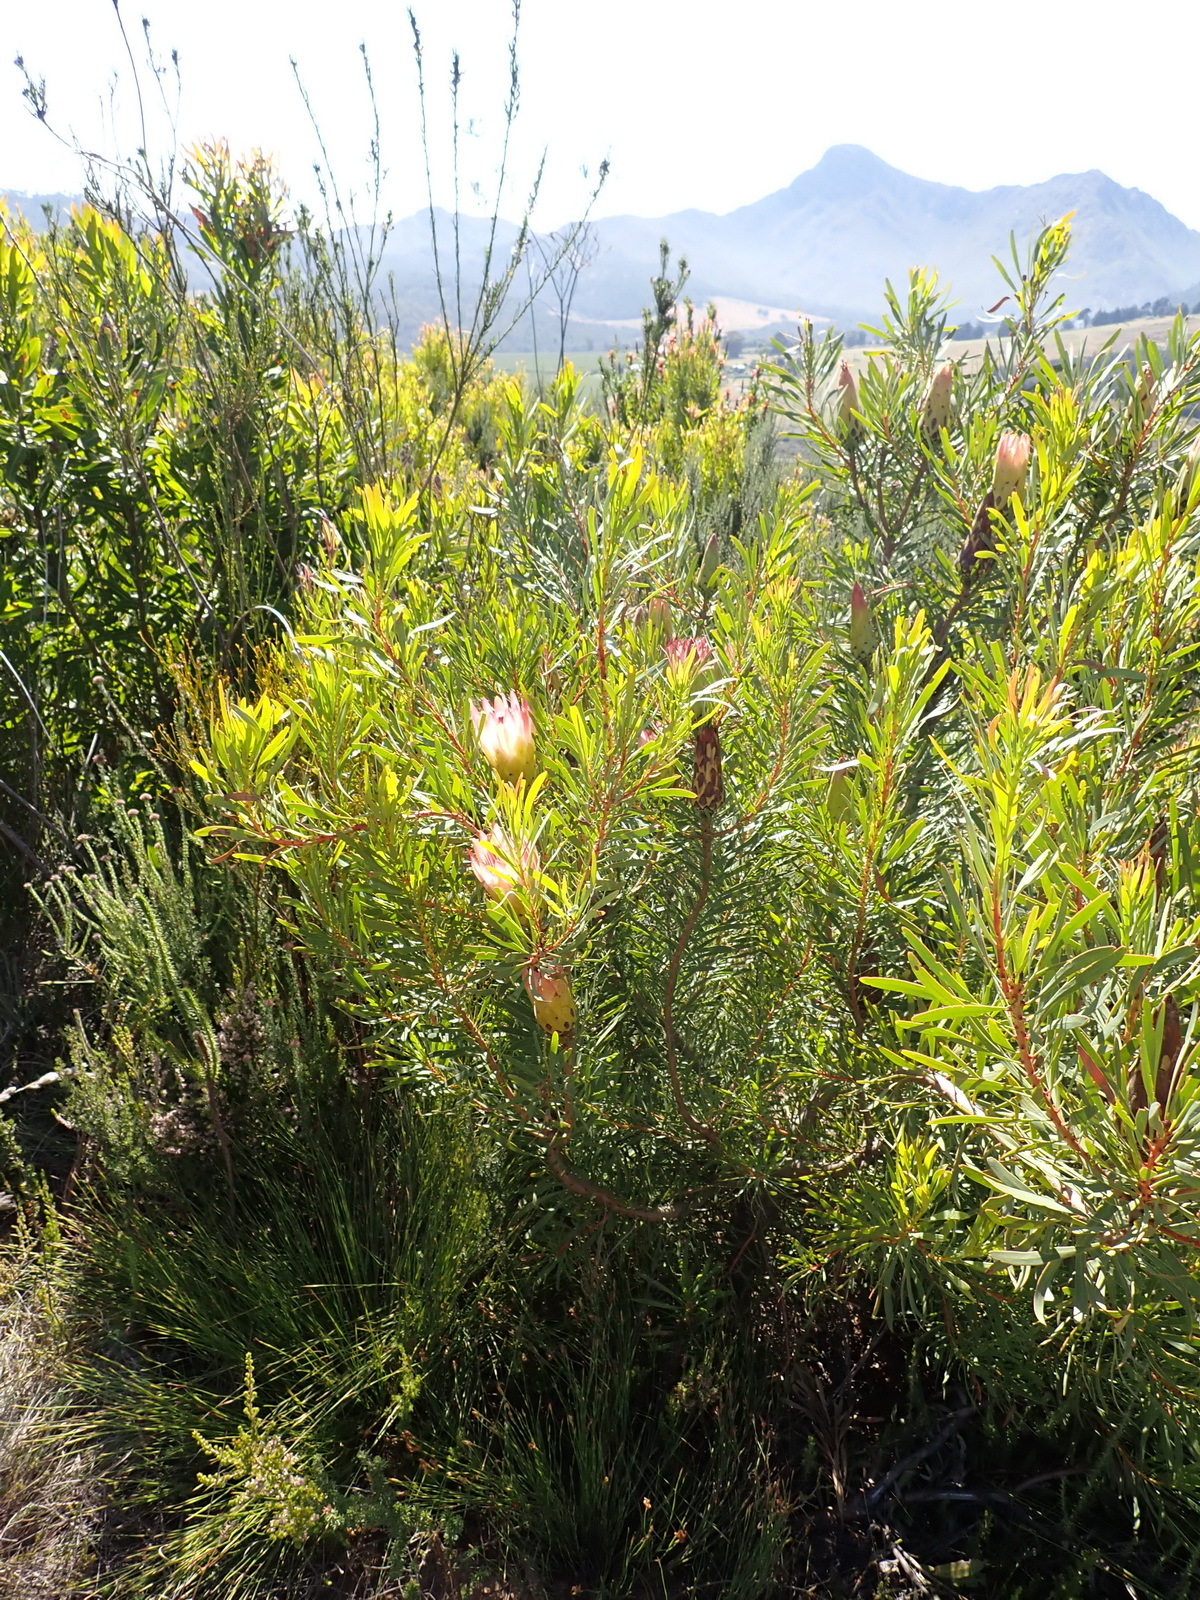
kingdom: Plantae
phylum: Tracheophyta
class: Magnoliopsida
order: Proteales
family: Proteaceae
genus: Protea
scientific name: Protea repens
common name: Sugarbush
